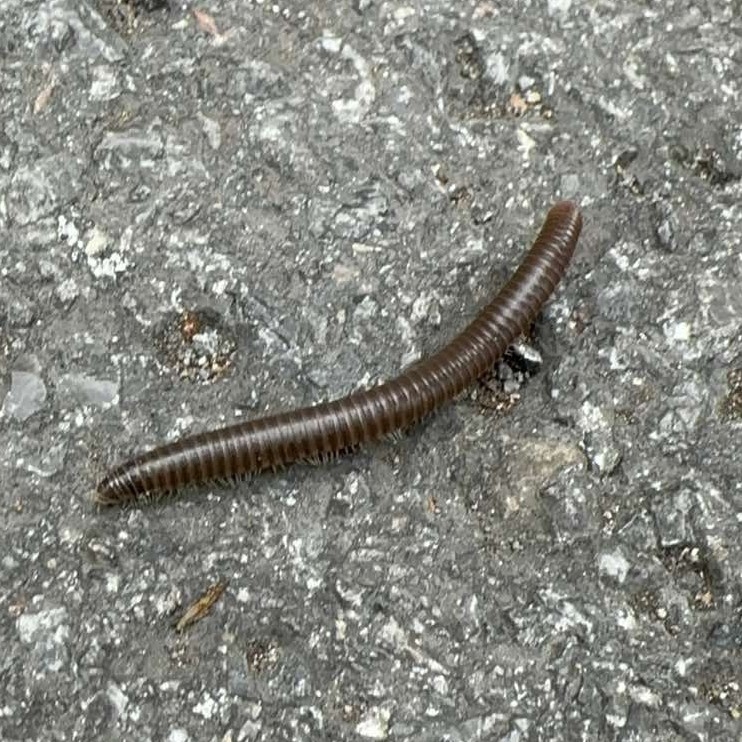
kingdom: Animalia
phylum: Arthropoda
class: Diplopoda
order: Julida
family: Julidae
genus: Pachyiulus
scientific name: Pachyiulus flavipes
